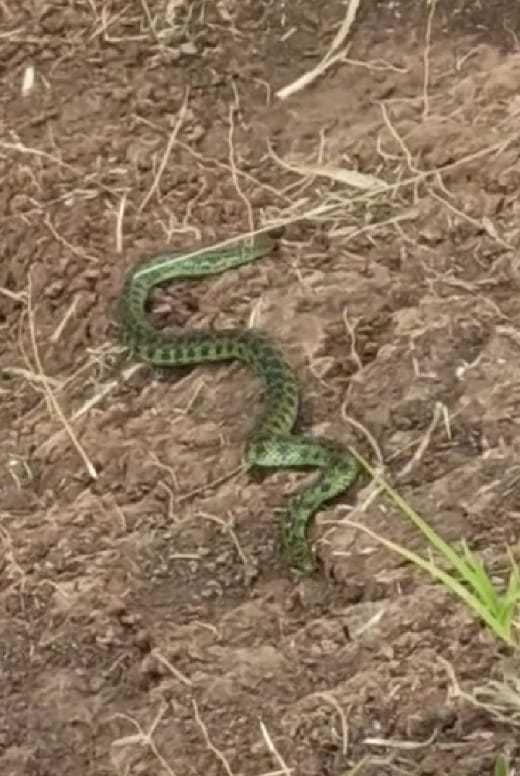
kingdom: Animalia
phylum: Chordata
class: Squamata
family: Colubridae
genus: Erythrolamprus
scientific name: Erythrolamprus poecilogyrus
